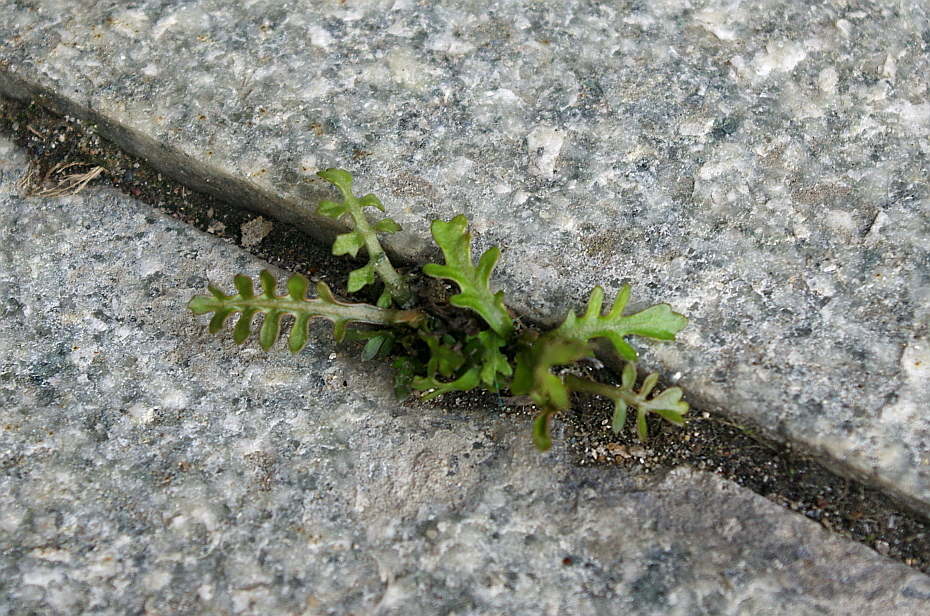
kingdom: Plantae
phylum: Tracheophyta
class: Magnoliopsida
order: Brassicales
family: Brassicaceae
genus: Rorippa
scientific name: Rorippa palustris
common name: Marsh yellow-cress
